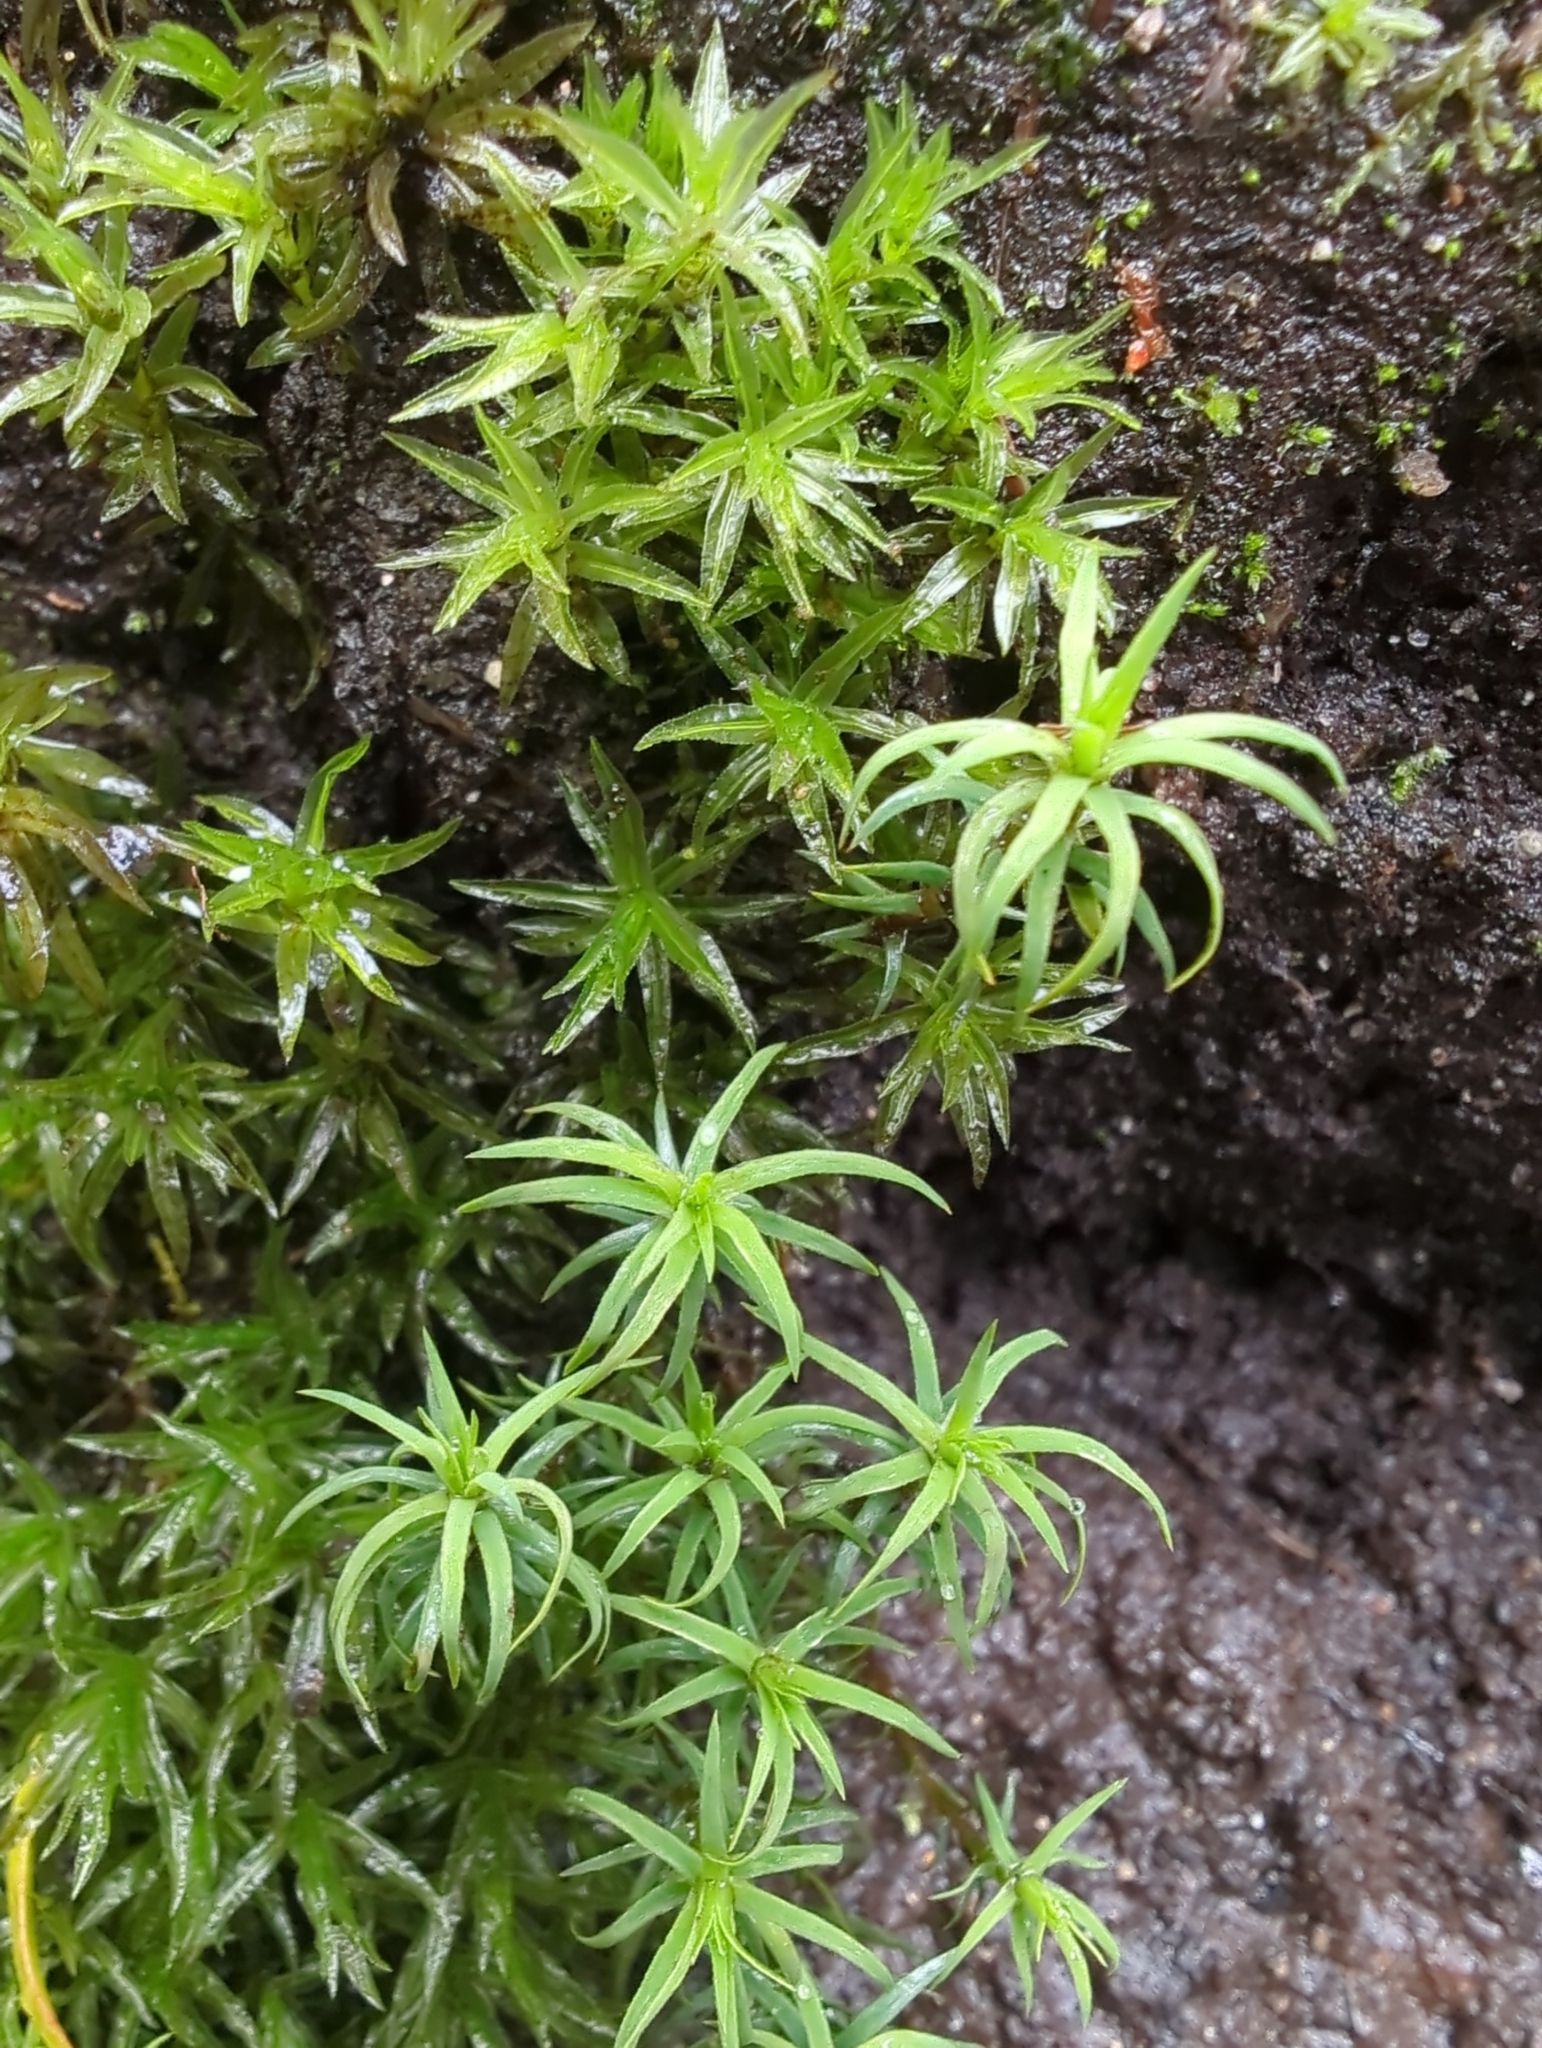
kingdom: Plantae
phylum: Bryophyta
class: Polytrichopsida
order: Polytrichales
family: Polytrichaceae
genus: Polytrichadelphus
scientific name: Polytrichadelphus magellanicus
